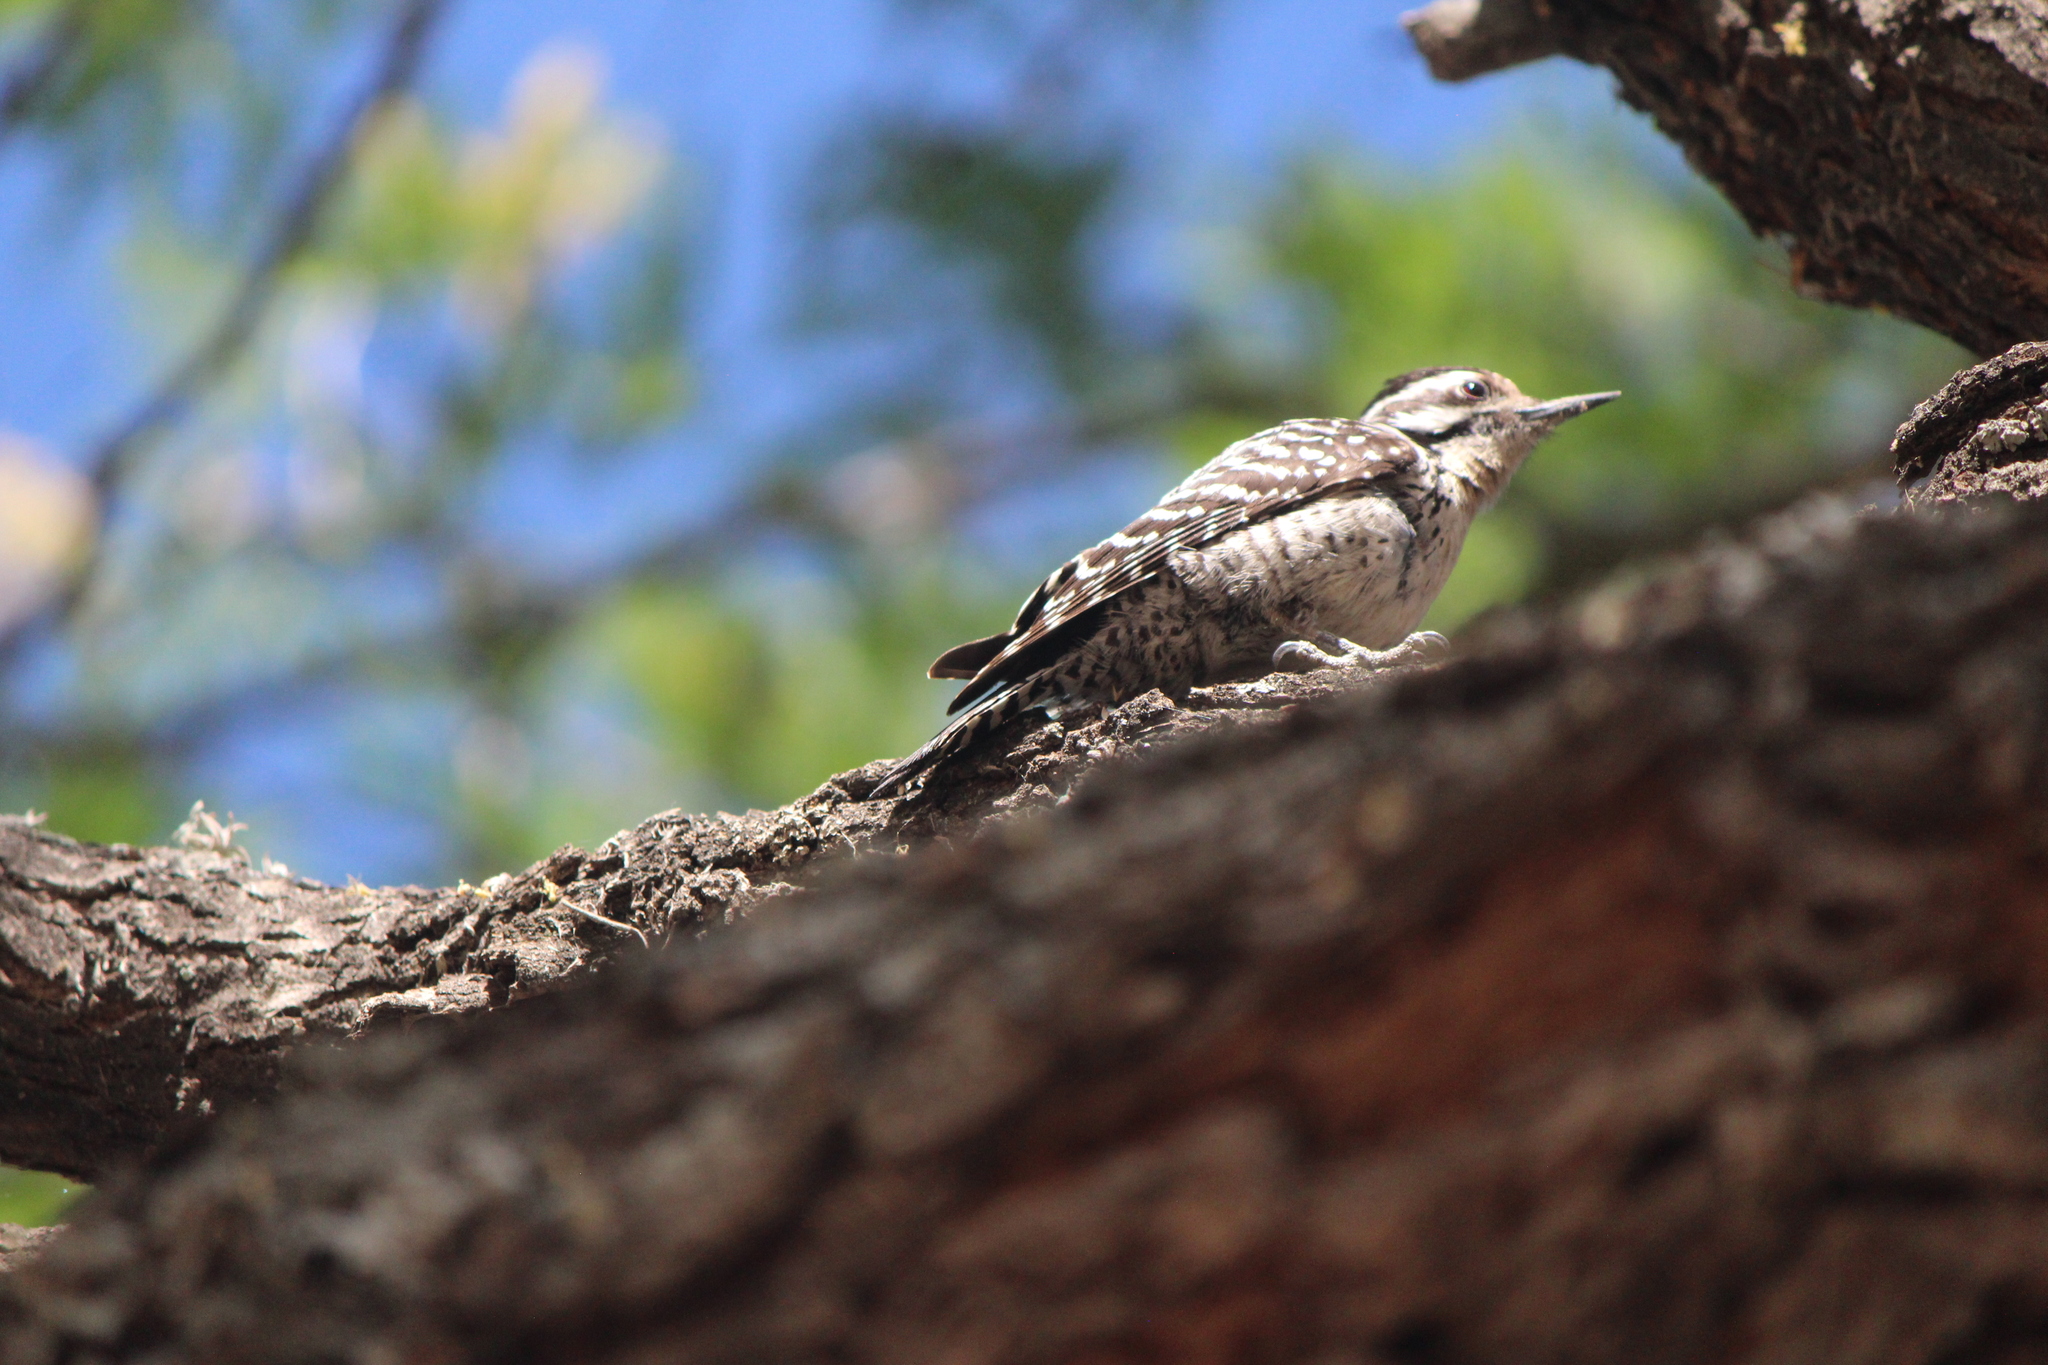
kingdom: Animalia
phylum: Chordata
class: Aves
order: Piciformes
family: Picidae
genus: Dryobates
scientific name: Dryobates scalaris
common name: Ladder-backed woodpecker
